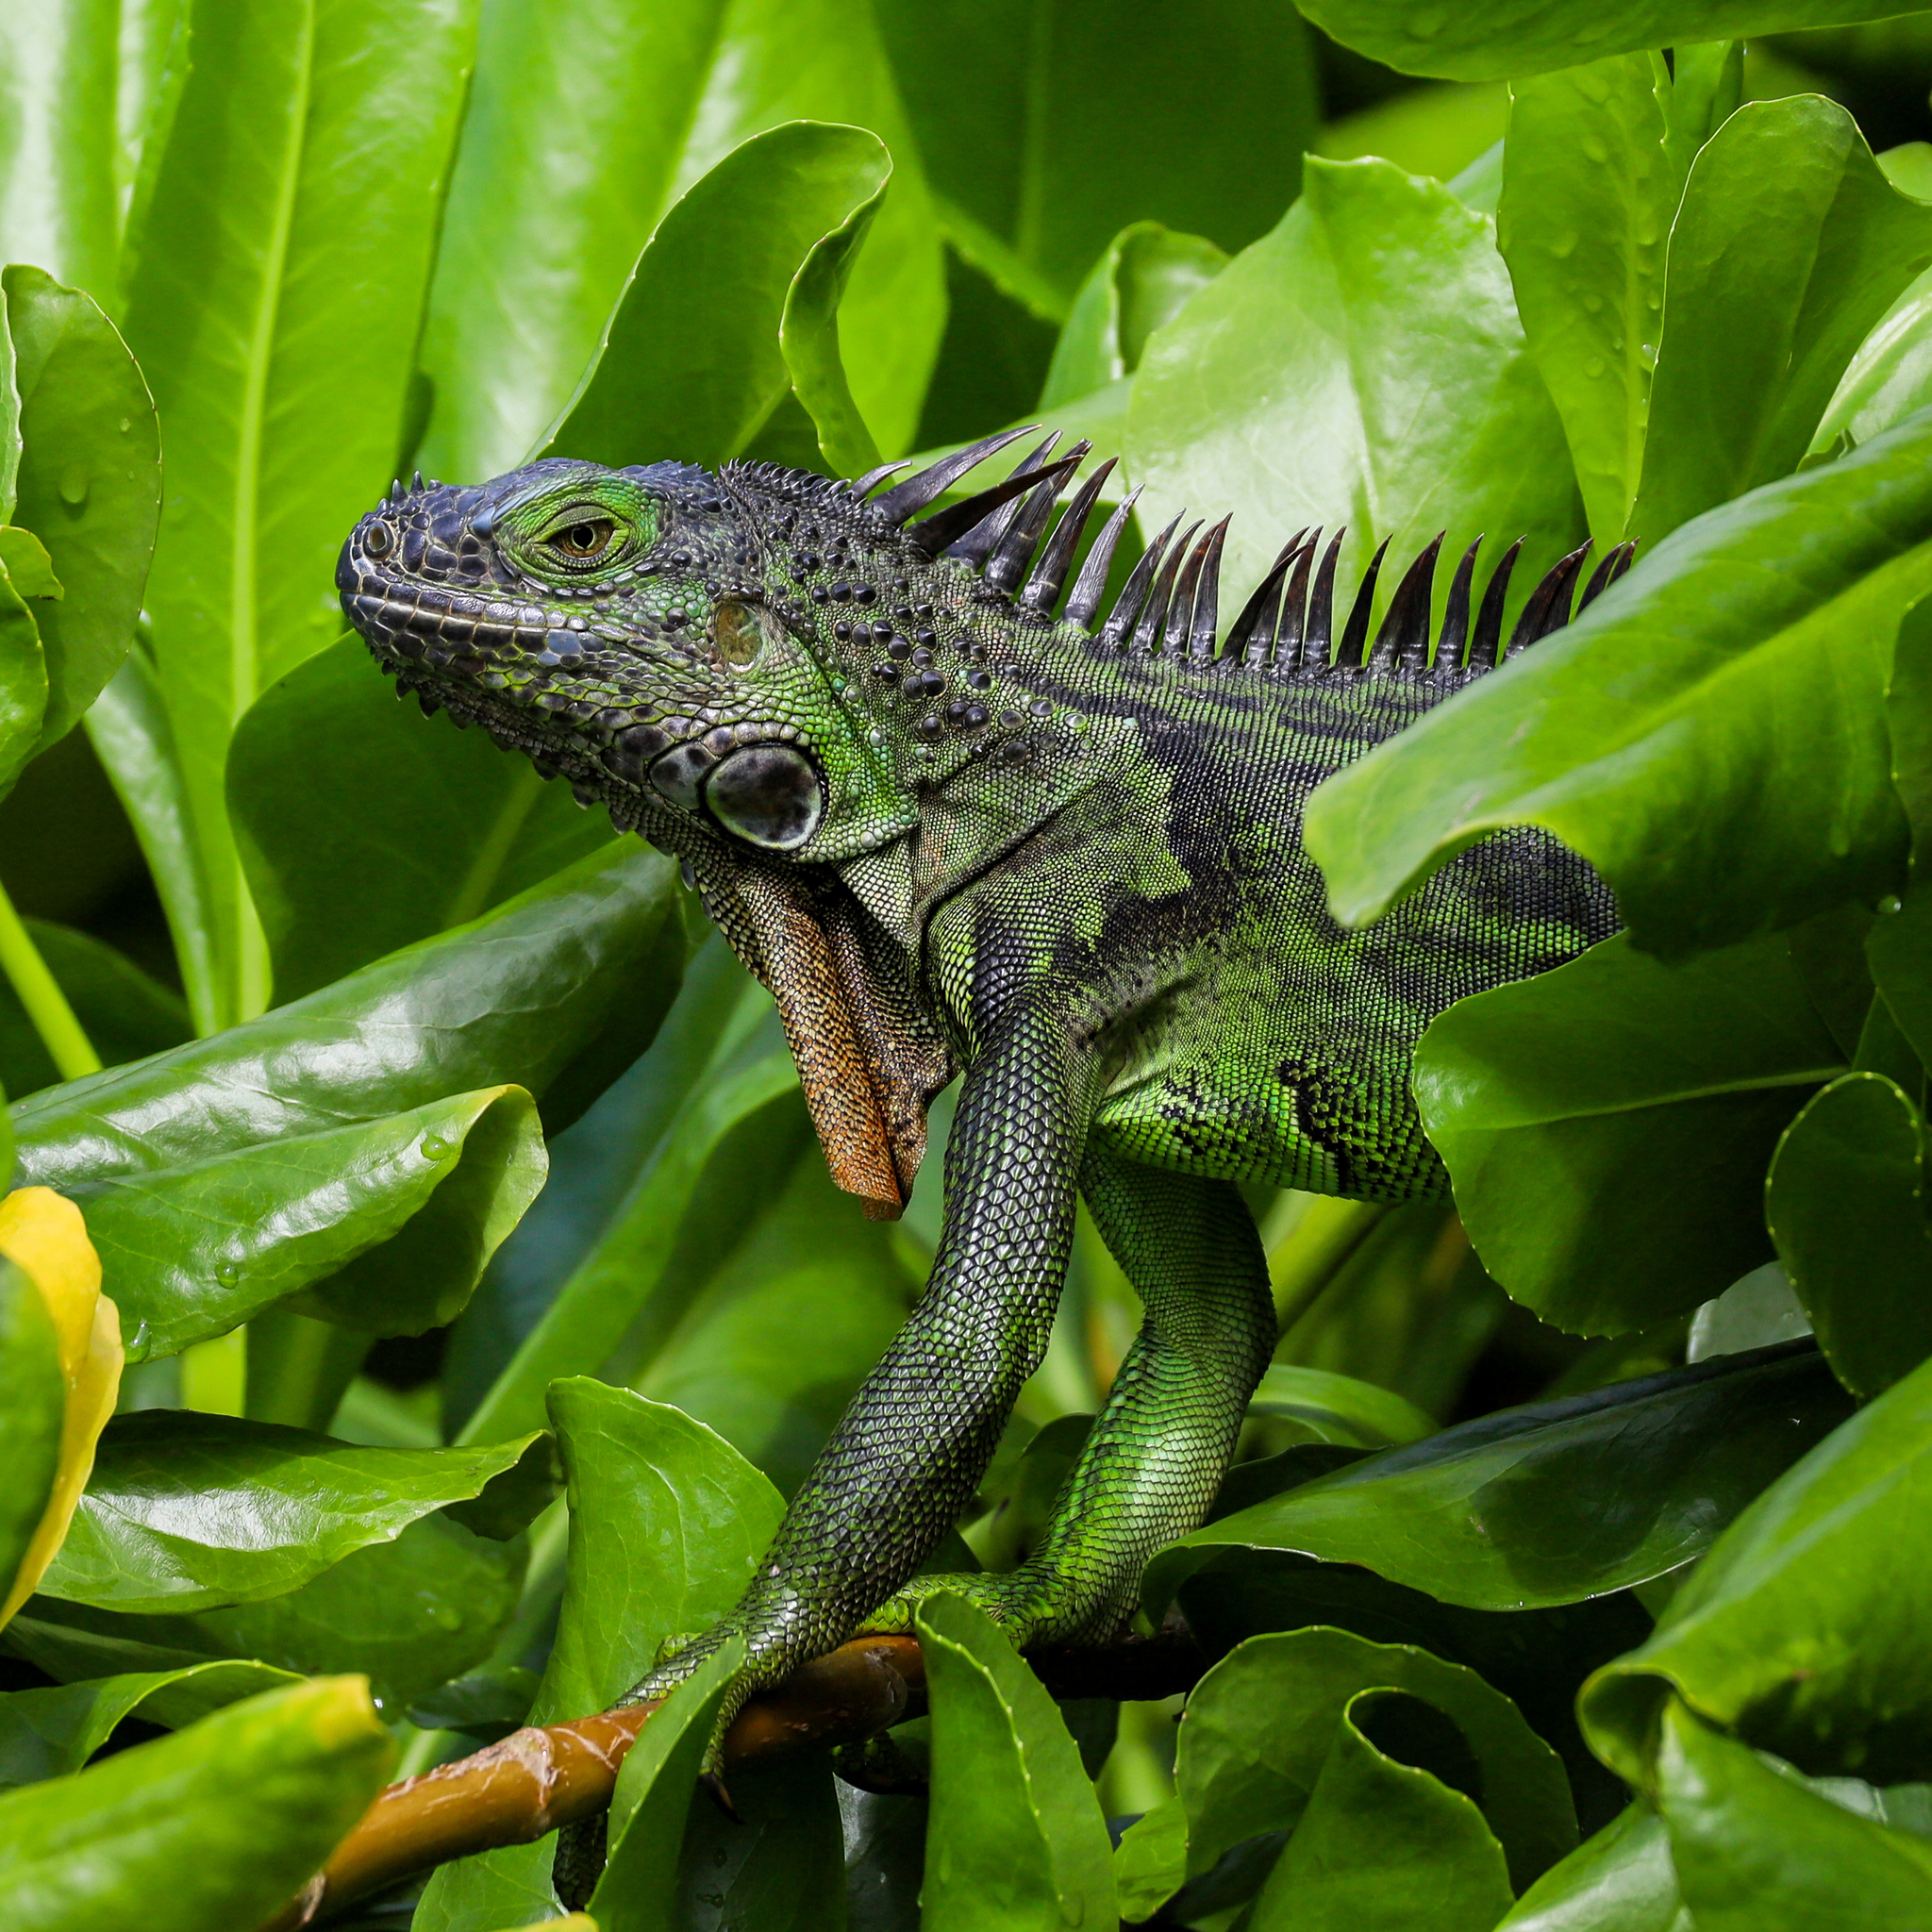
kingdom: Animalia
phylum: Chordata
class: Squamata
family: Iguanidae
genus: Iguana
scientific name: Iguana iguana
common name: Green iguana
